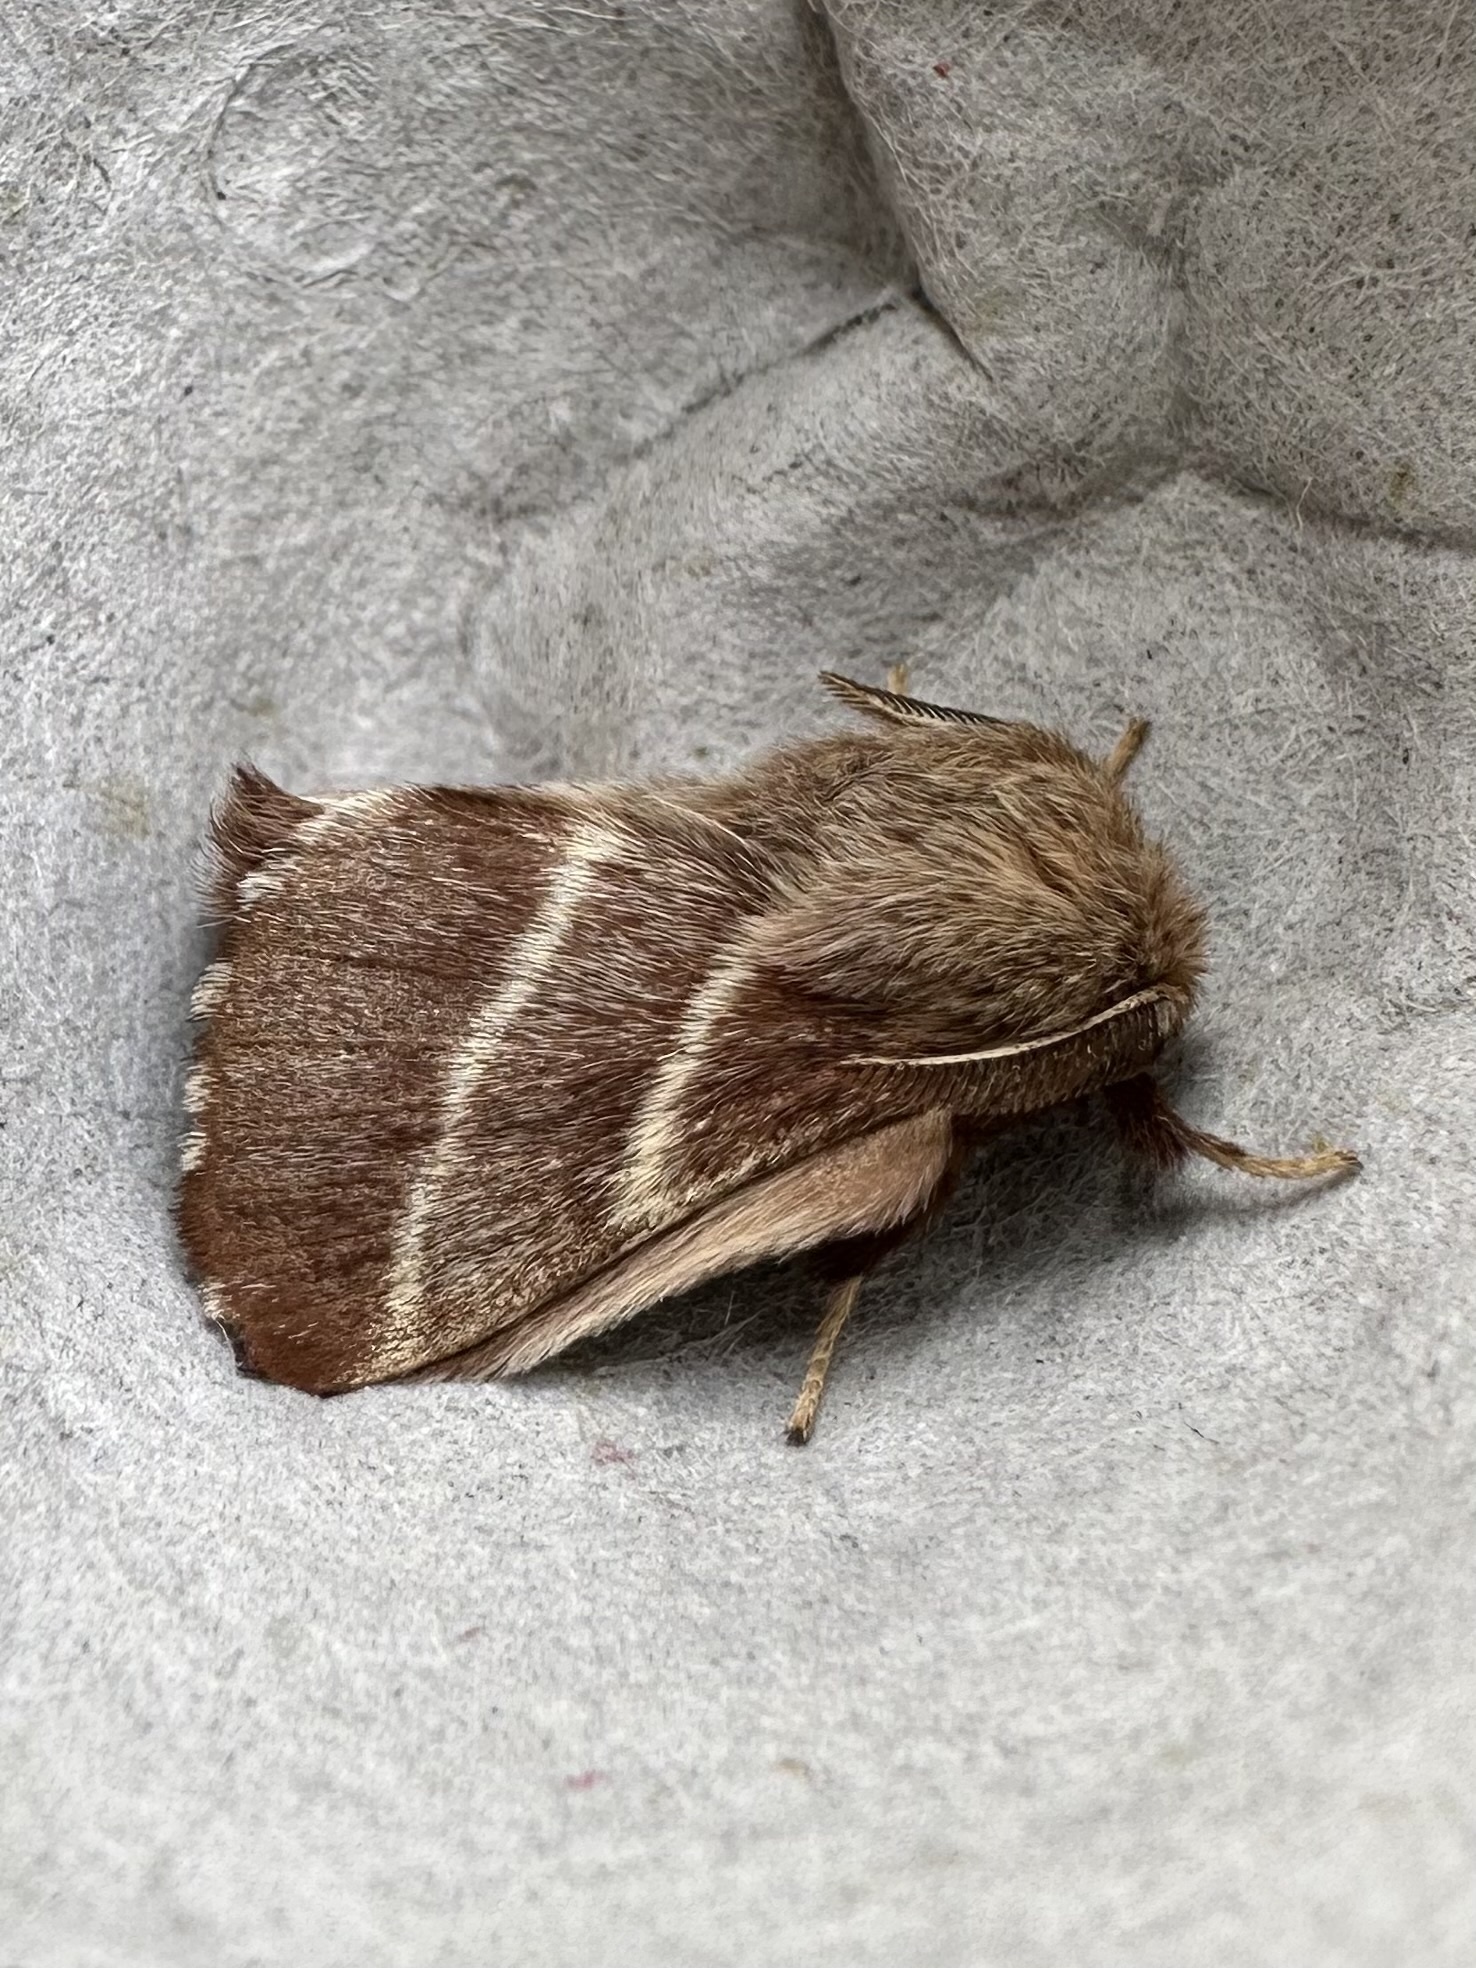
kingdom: Animalia
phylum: Arthropoda
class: Insecta
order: Lepidoptera
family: Lasiocampidae
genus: Malacosoma
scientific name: Malacosoma americana
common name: Eastern tent caterpillar moth
